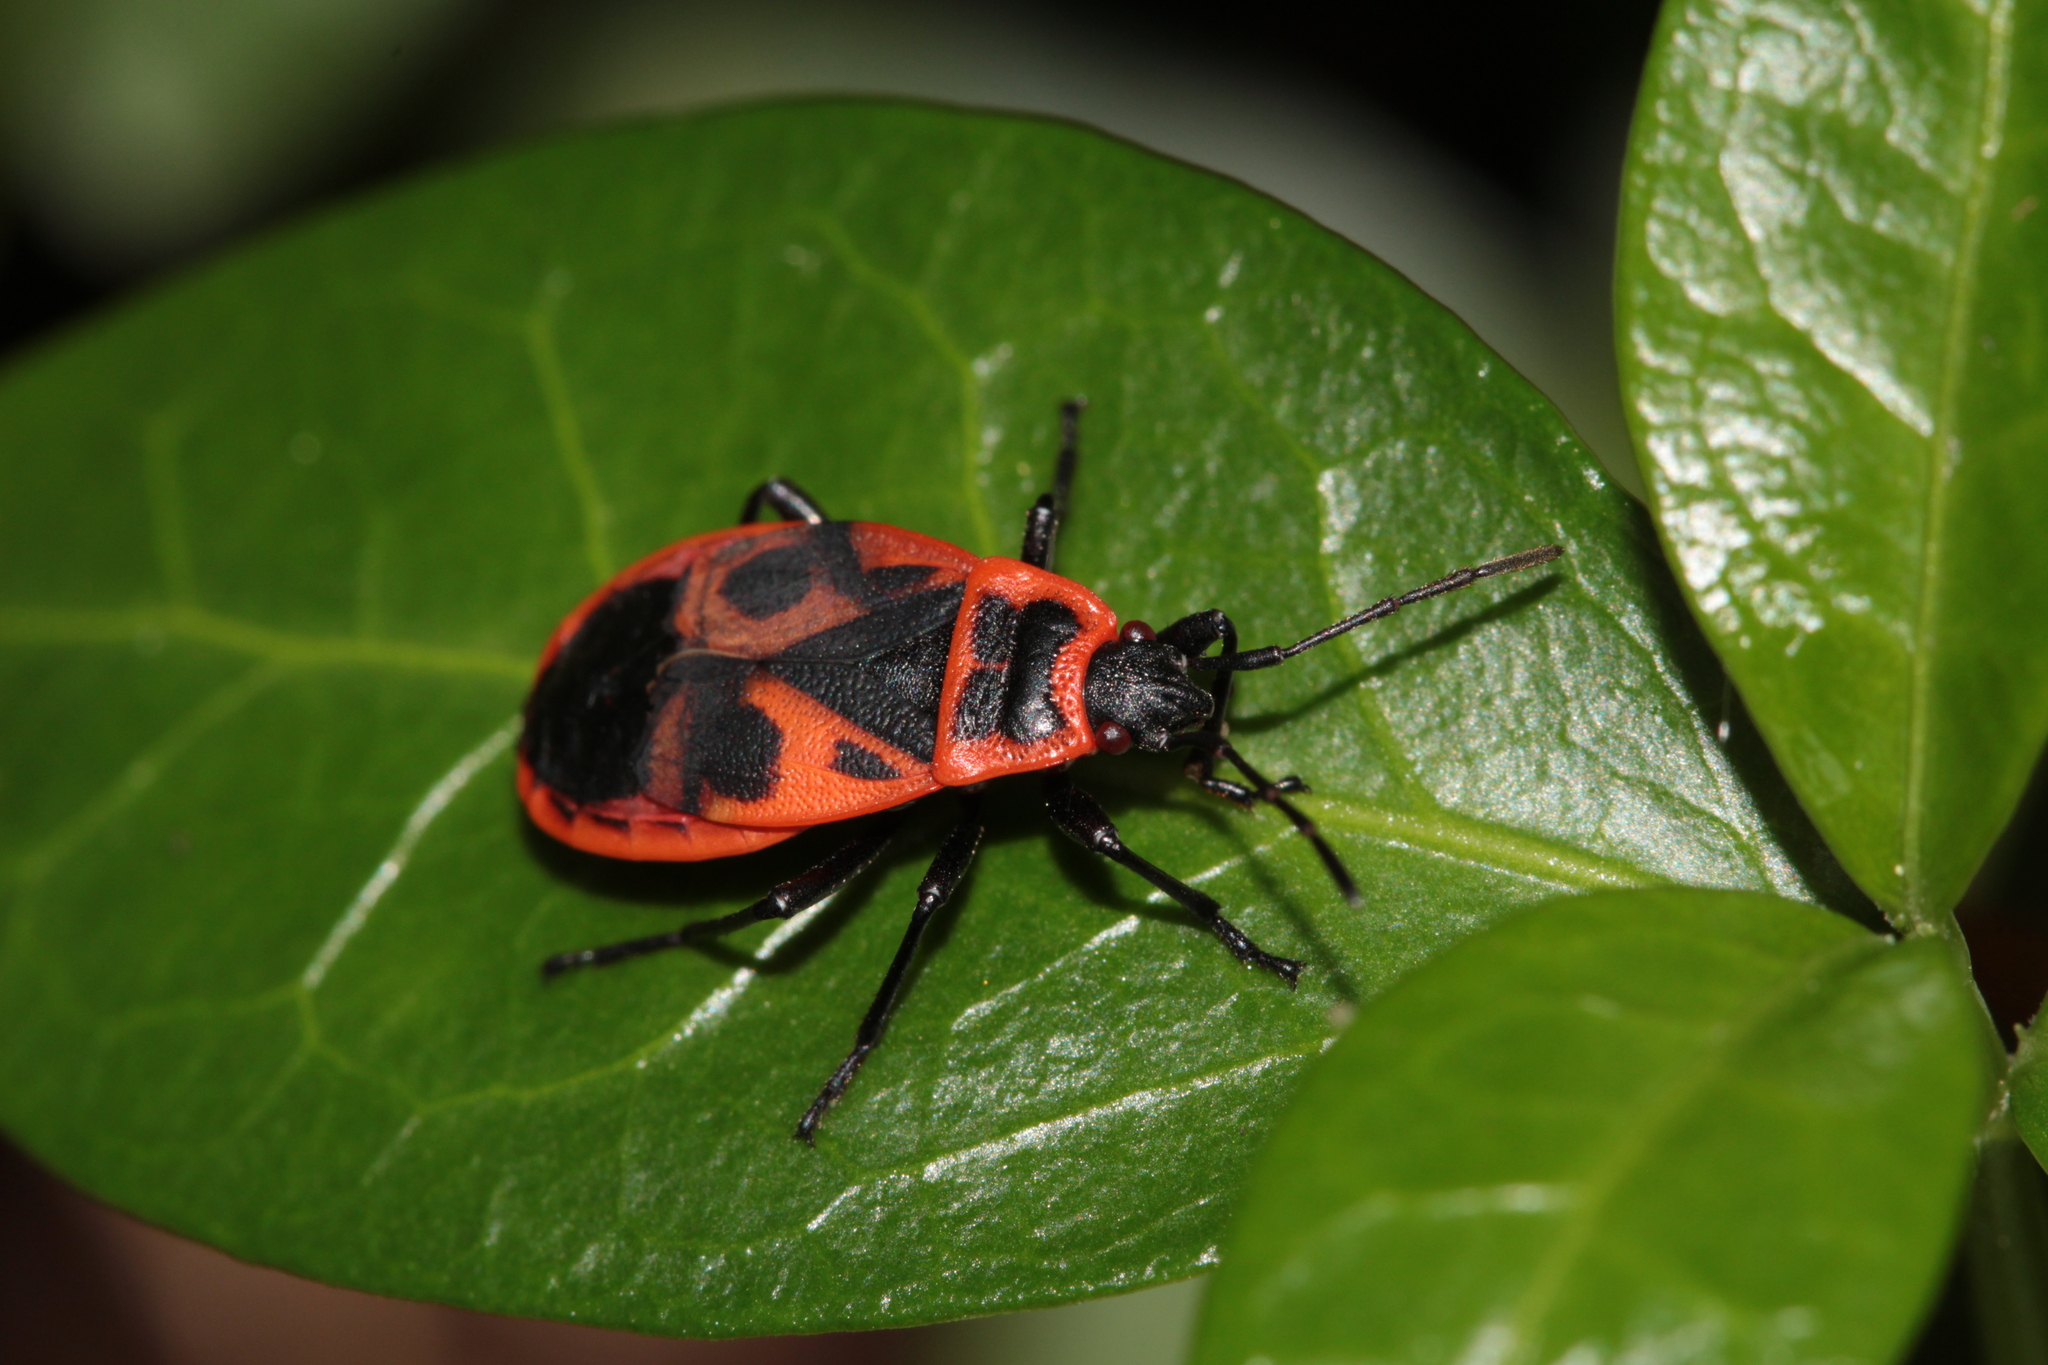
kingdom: Animalia
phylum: Arthropoda
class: Insecta
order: Hemiptera
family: Pyrrhocoridae
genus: Pyrrhocoris
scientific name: Pyrrhocoris apterus
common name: Firebug
